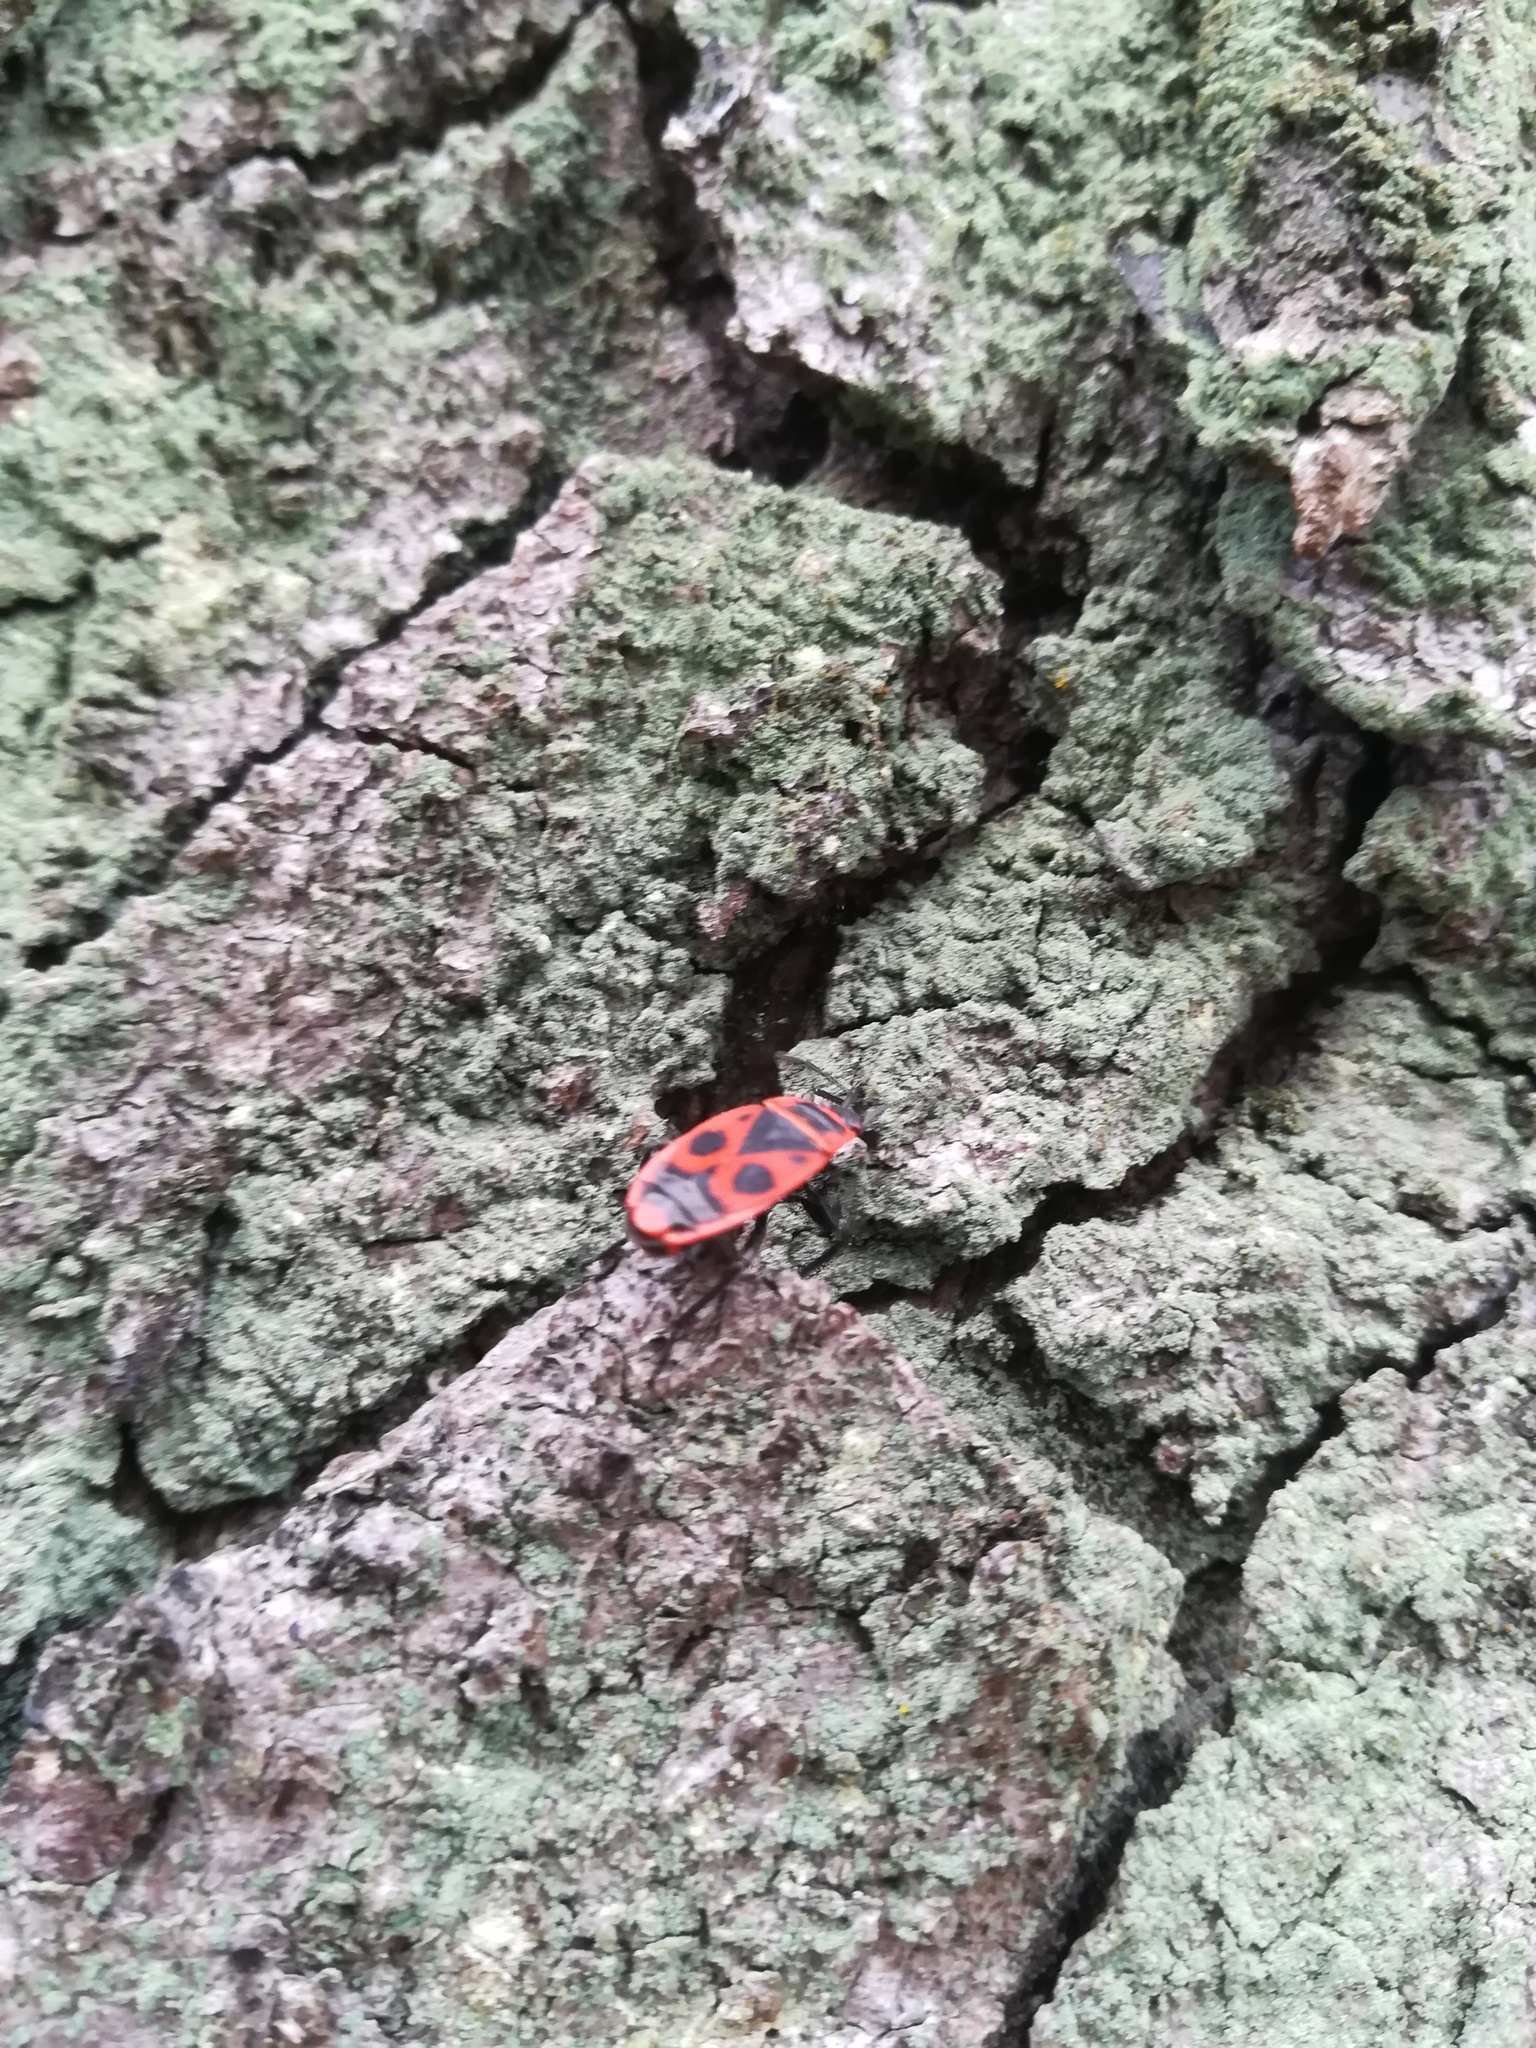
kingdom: Animalia
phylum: Arthropoda
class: Insecta
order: Hemiptera
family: Pyrrhocoridae
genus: Pyrrhocoris
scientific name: Pyrrhocoris apterus
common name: Firebug
